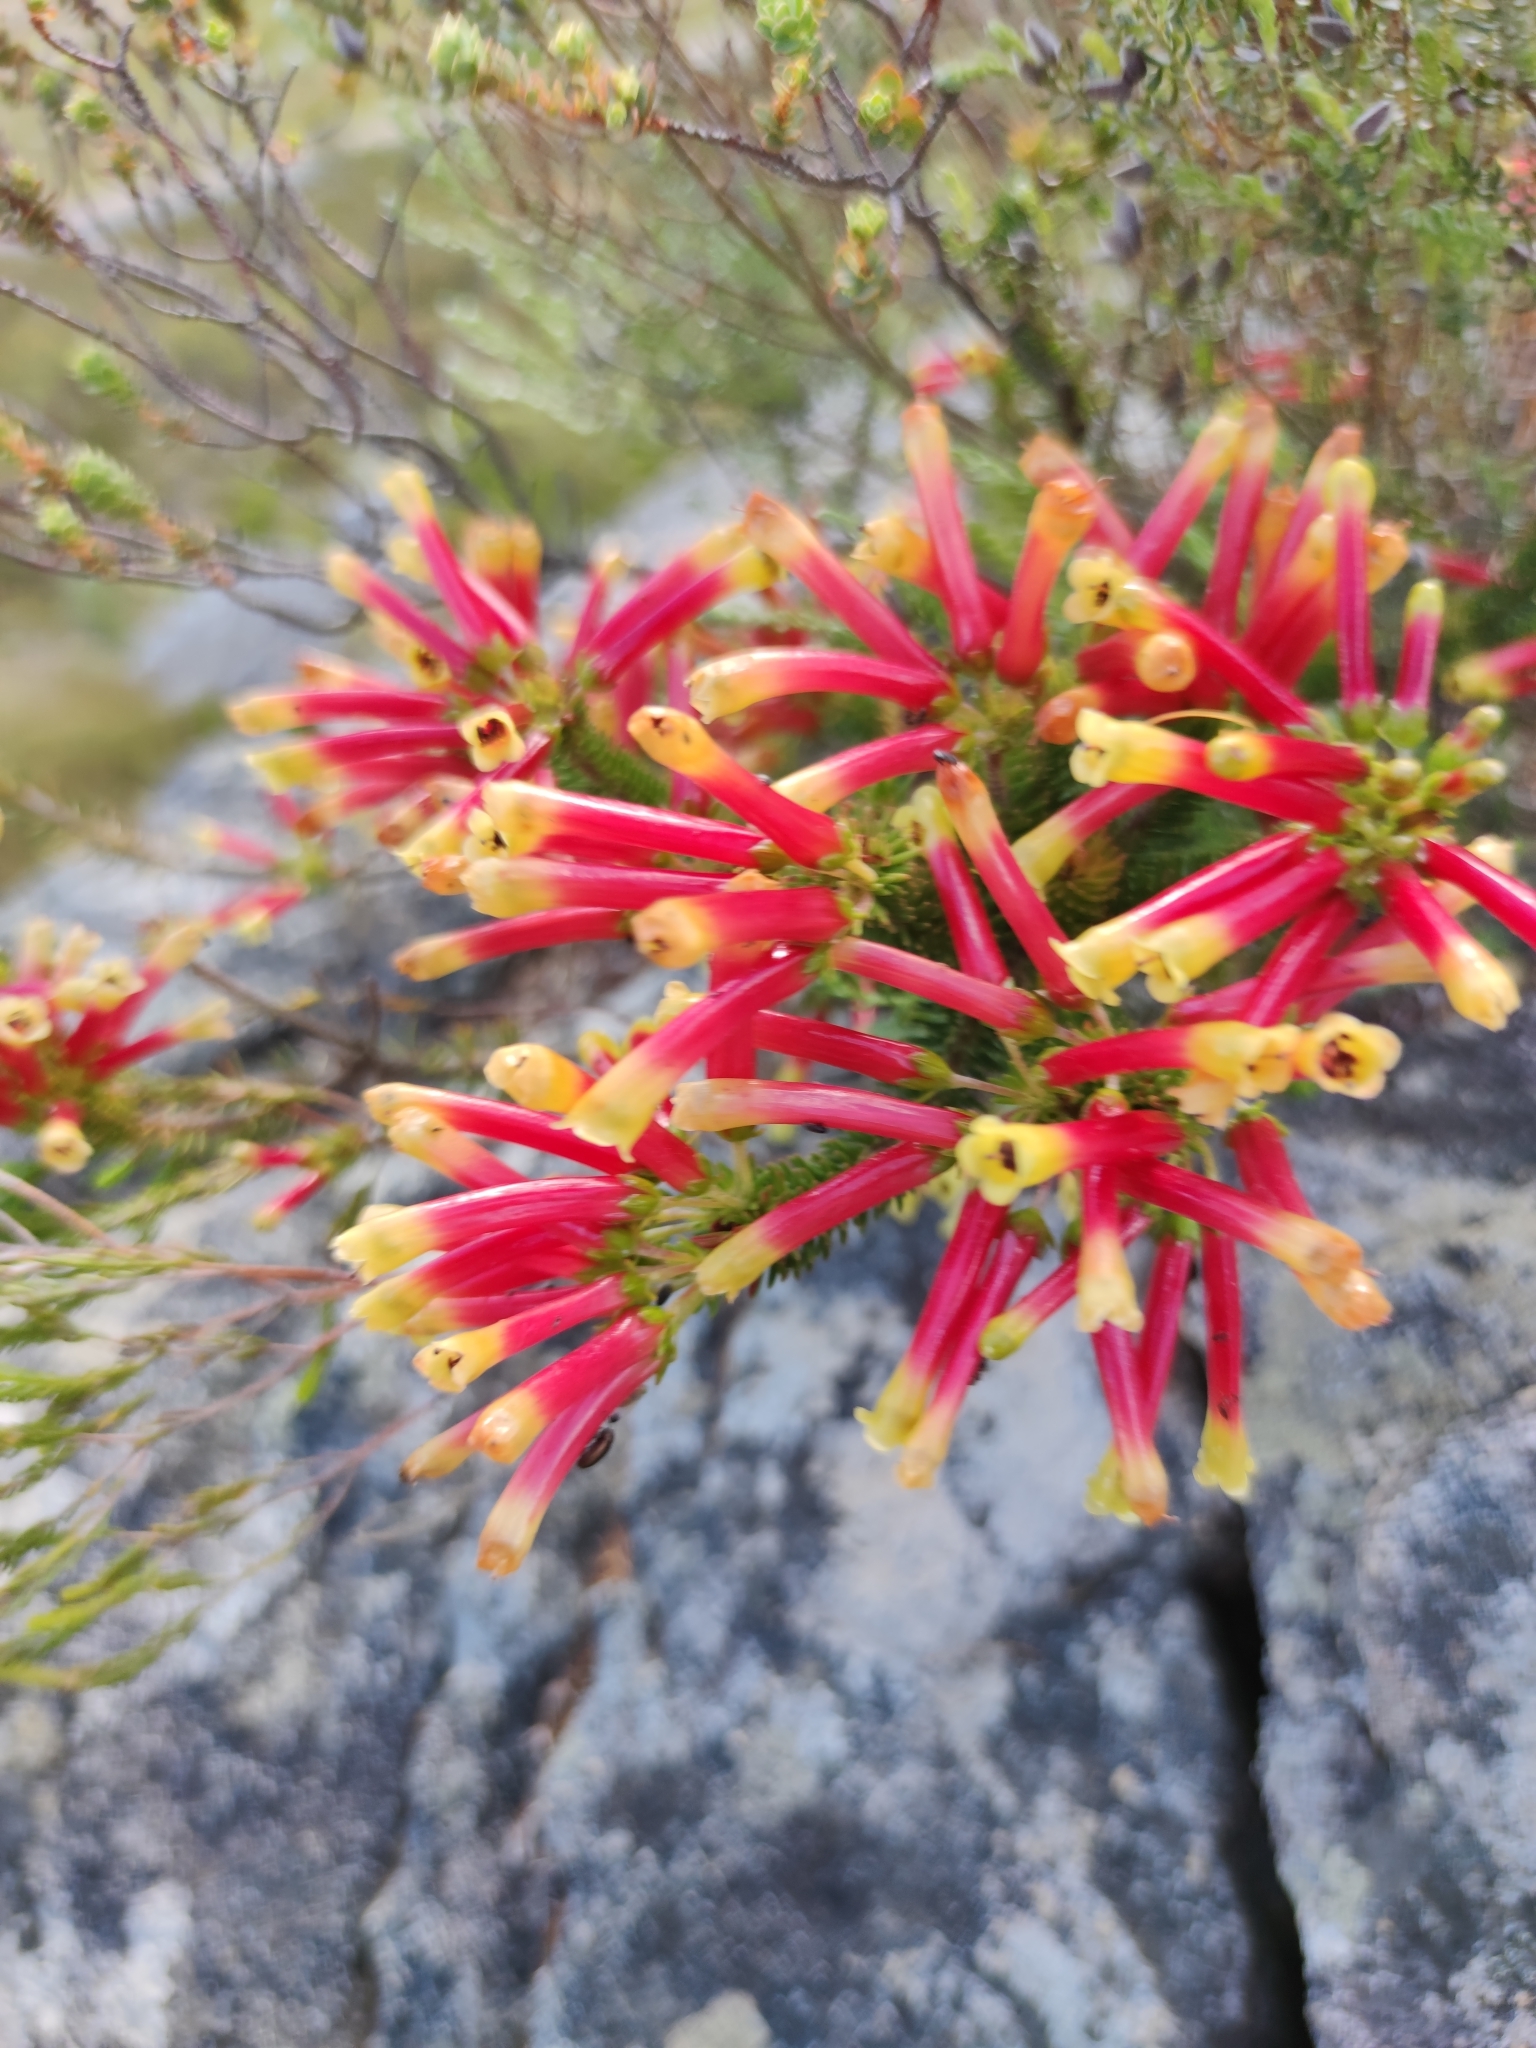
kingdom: Plantae
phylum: Tracheophyta
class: Magnoliopsida
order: Ericales
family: Ericaceae
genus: Erica
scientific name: Erica hibbertia
